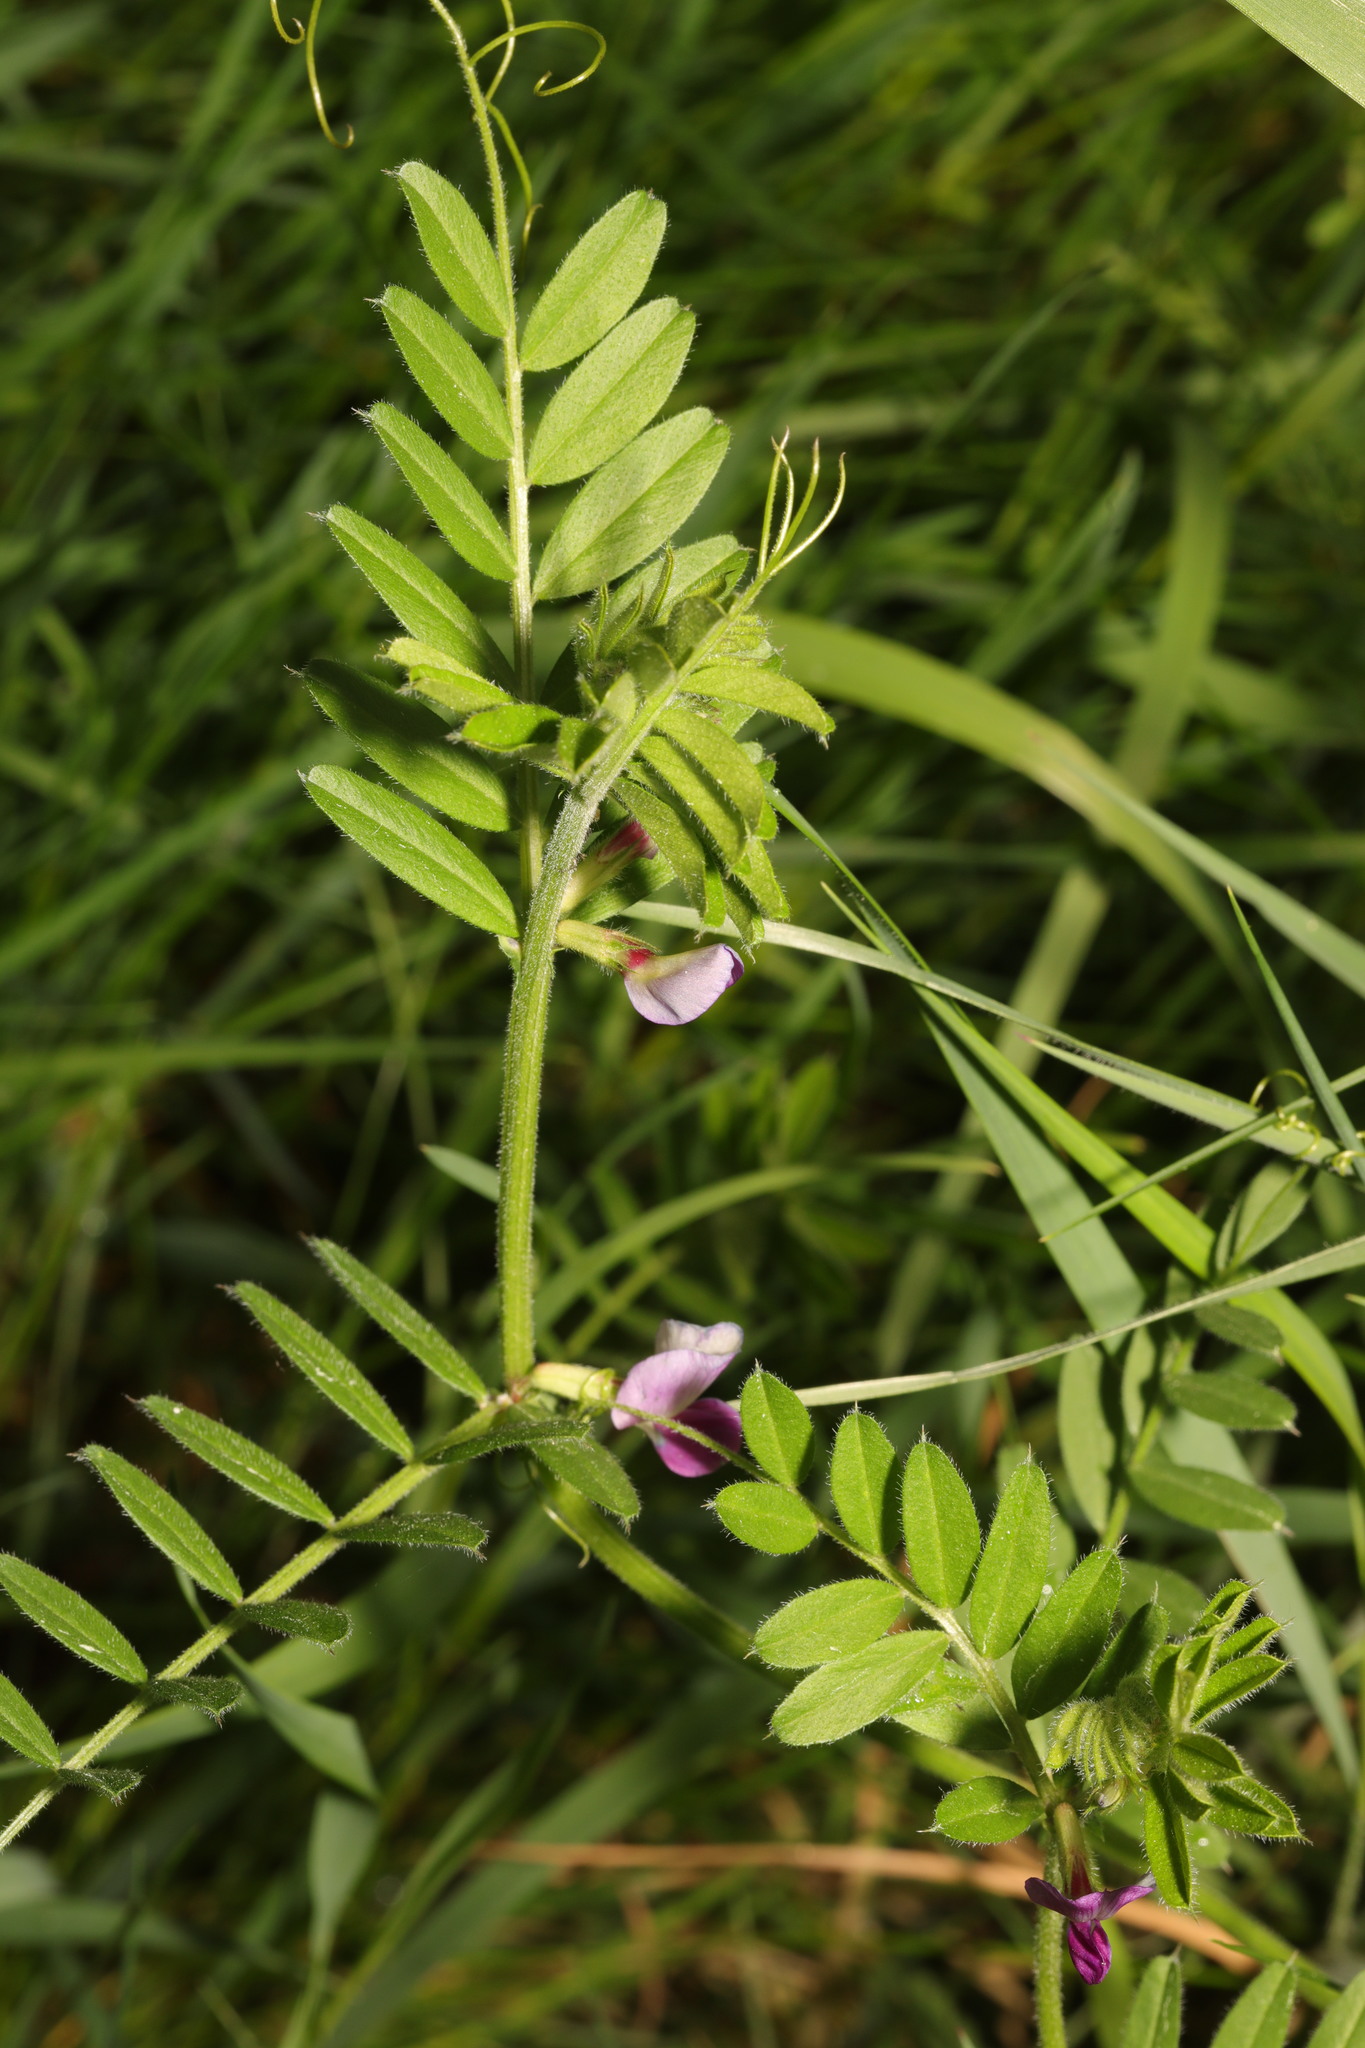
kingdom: Plantae
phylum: Tracheophyta
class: Magnoliopsida
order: Fabales
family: Fabaceae
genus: Vicia
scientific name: Vicia sativa
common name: Garden vetch
